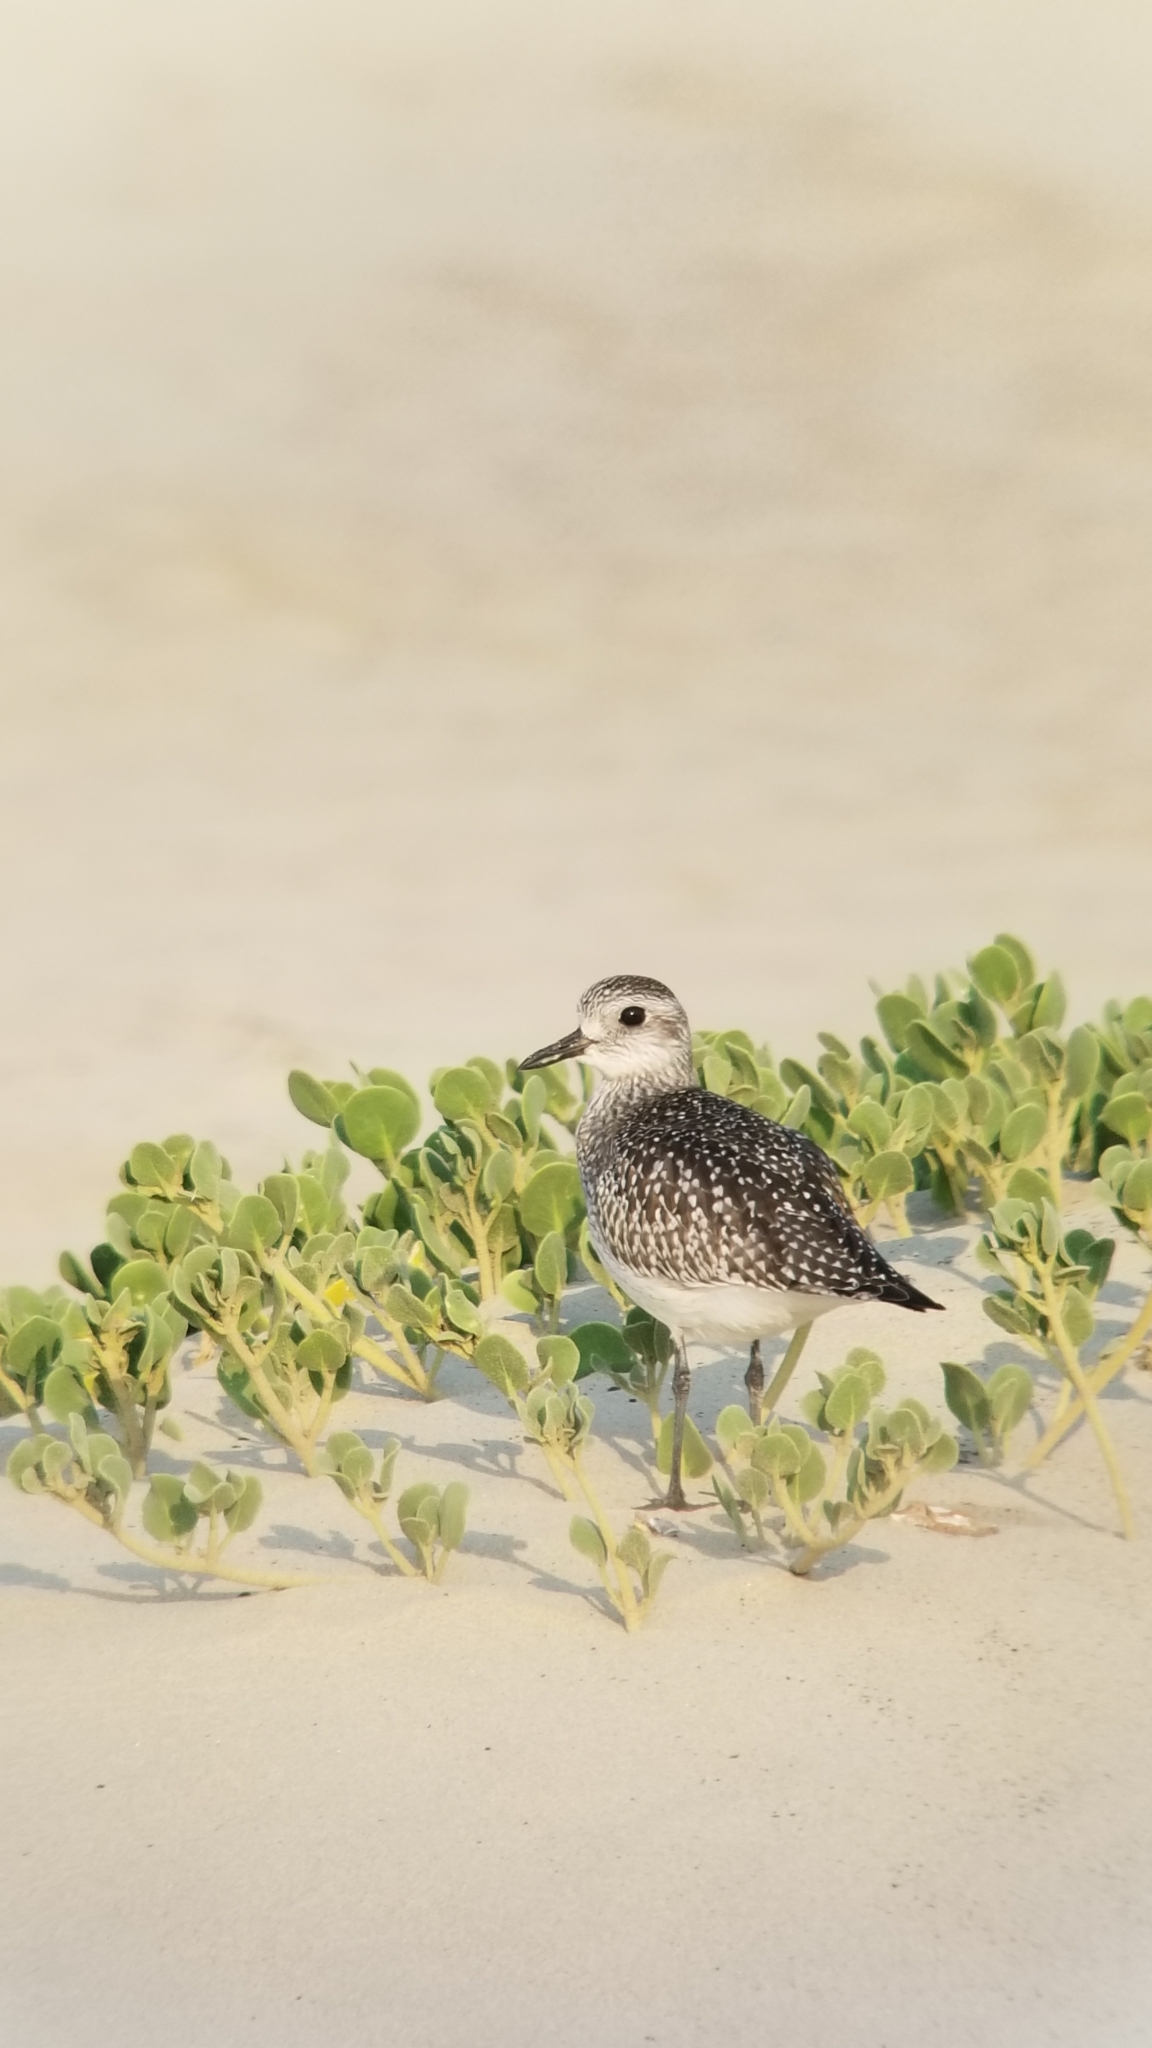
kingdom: Animalia
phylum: Chordata
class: Aves
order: Charadriiformes
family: Charadriidae
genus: Pluvialis
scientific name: Pluvialis squatarola
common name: Grey plover
